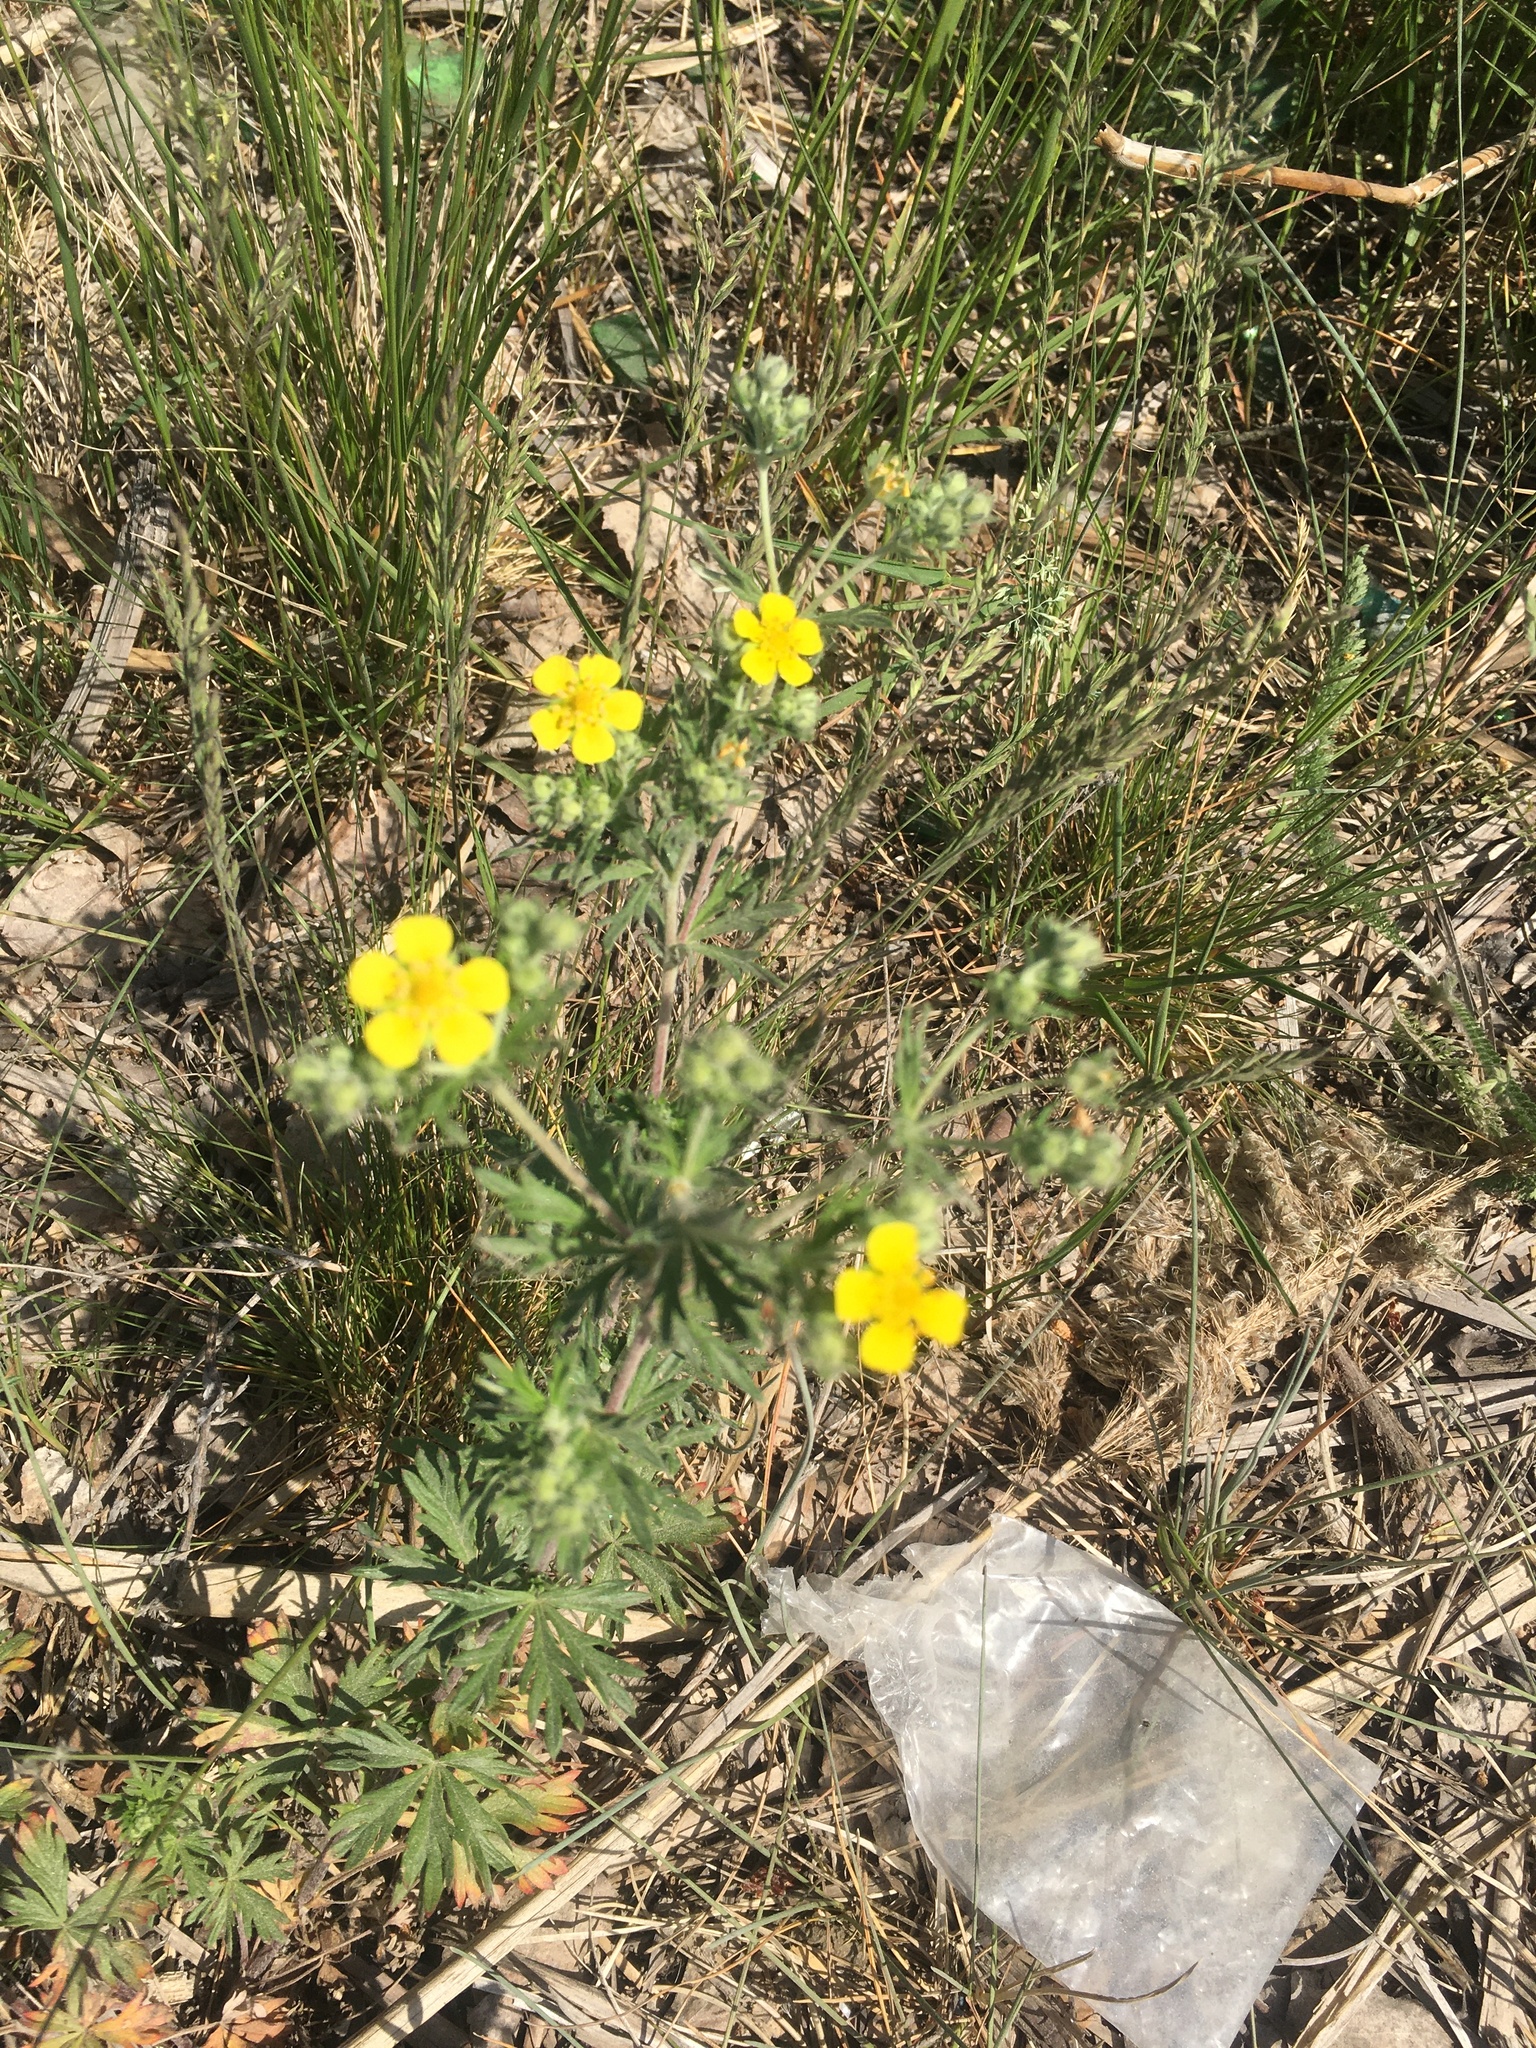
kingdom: Plantae
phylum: Tracheophyta
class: Magnoliopsida
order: Rosales
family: Rosaceae
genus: Potentilla
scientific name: Potentilla argentea
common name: Hoary cinquefoil
